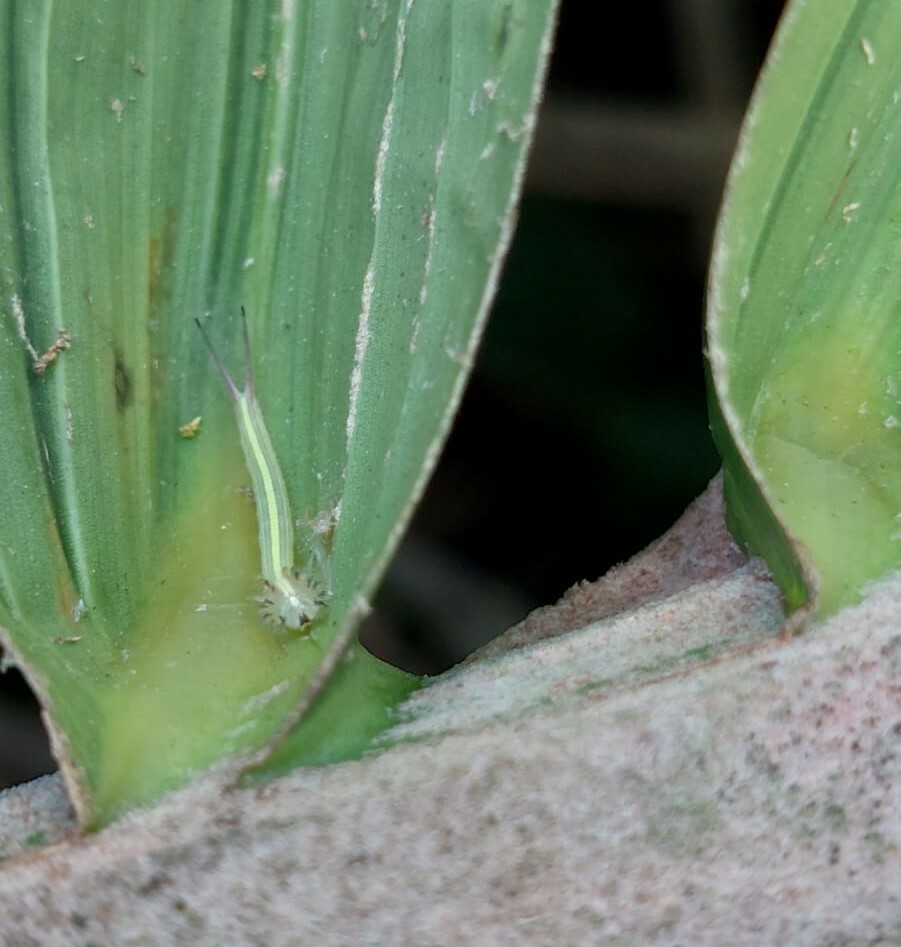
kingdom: Animalia
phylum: Arthropoda
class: Insecta
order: Lepidoptera
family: Nymphalidae
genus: Opsiphanes
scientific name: Opsiphanes cassina
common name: Split-banded owl-butterfly
